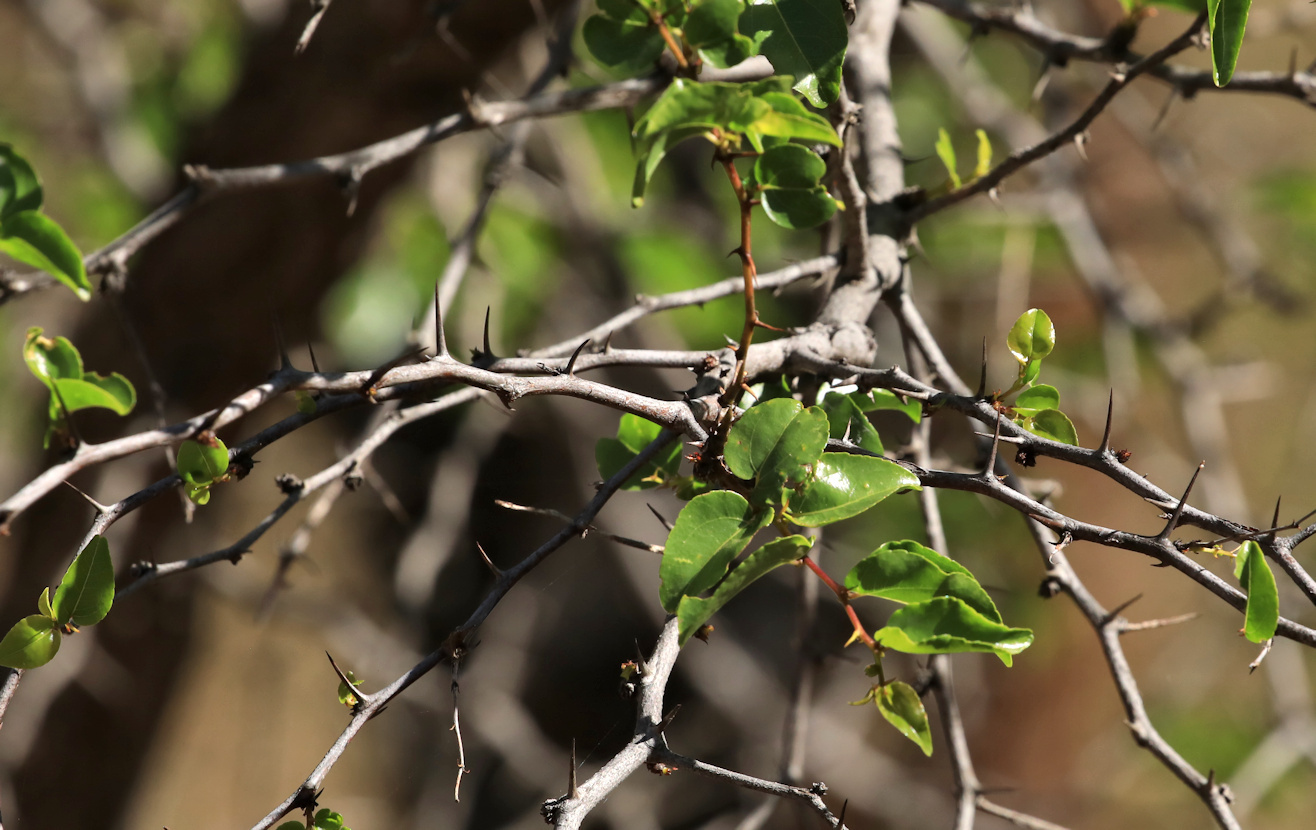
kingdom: Plantae
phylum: Tracheophyta
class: Magnoliopsida
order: Rosales
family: Rhamnaceae
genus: Ziziphus
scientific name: Ziziphus mucronata
